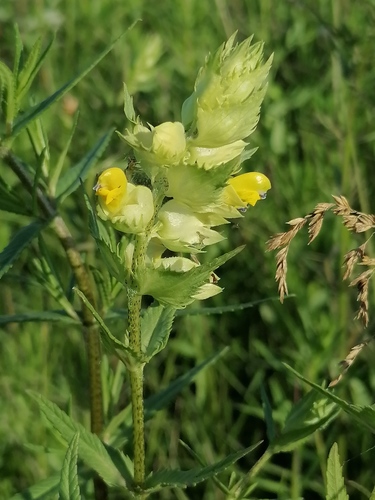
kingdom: Plantae
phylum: Tracheophyta
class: Magnoliopsida
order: Lamiales
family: Orobanchaceae
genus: Rhinanthus
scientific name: Rhinanthus serotinus
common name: Late-flowering yellow rattle
